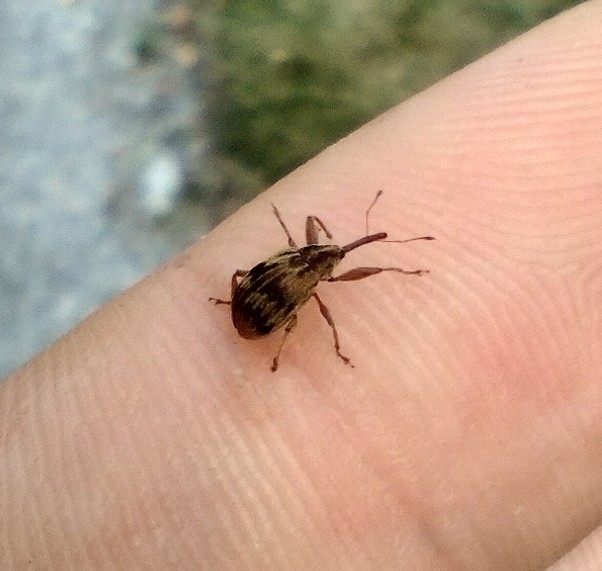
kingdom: Animalia
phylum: Arthropoda
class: Insecta
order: Coleoptera
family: Curculionidae
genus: Anthonomus
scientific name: Anthonomus rectirostris
